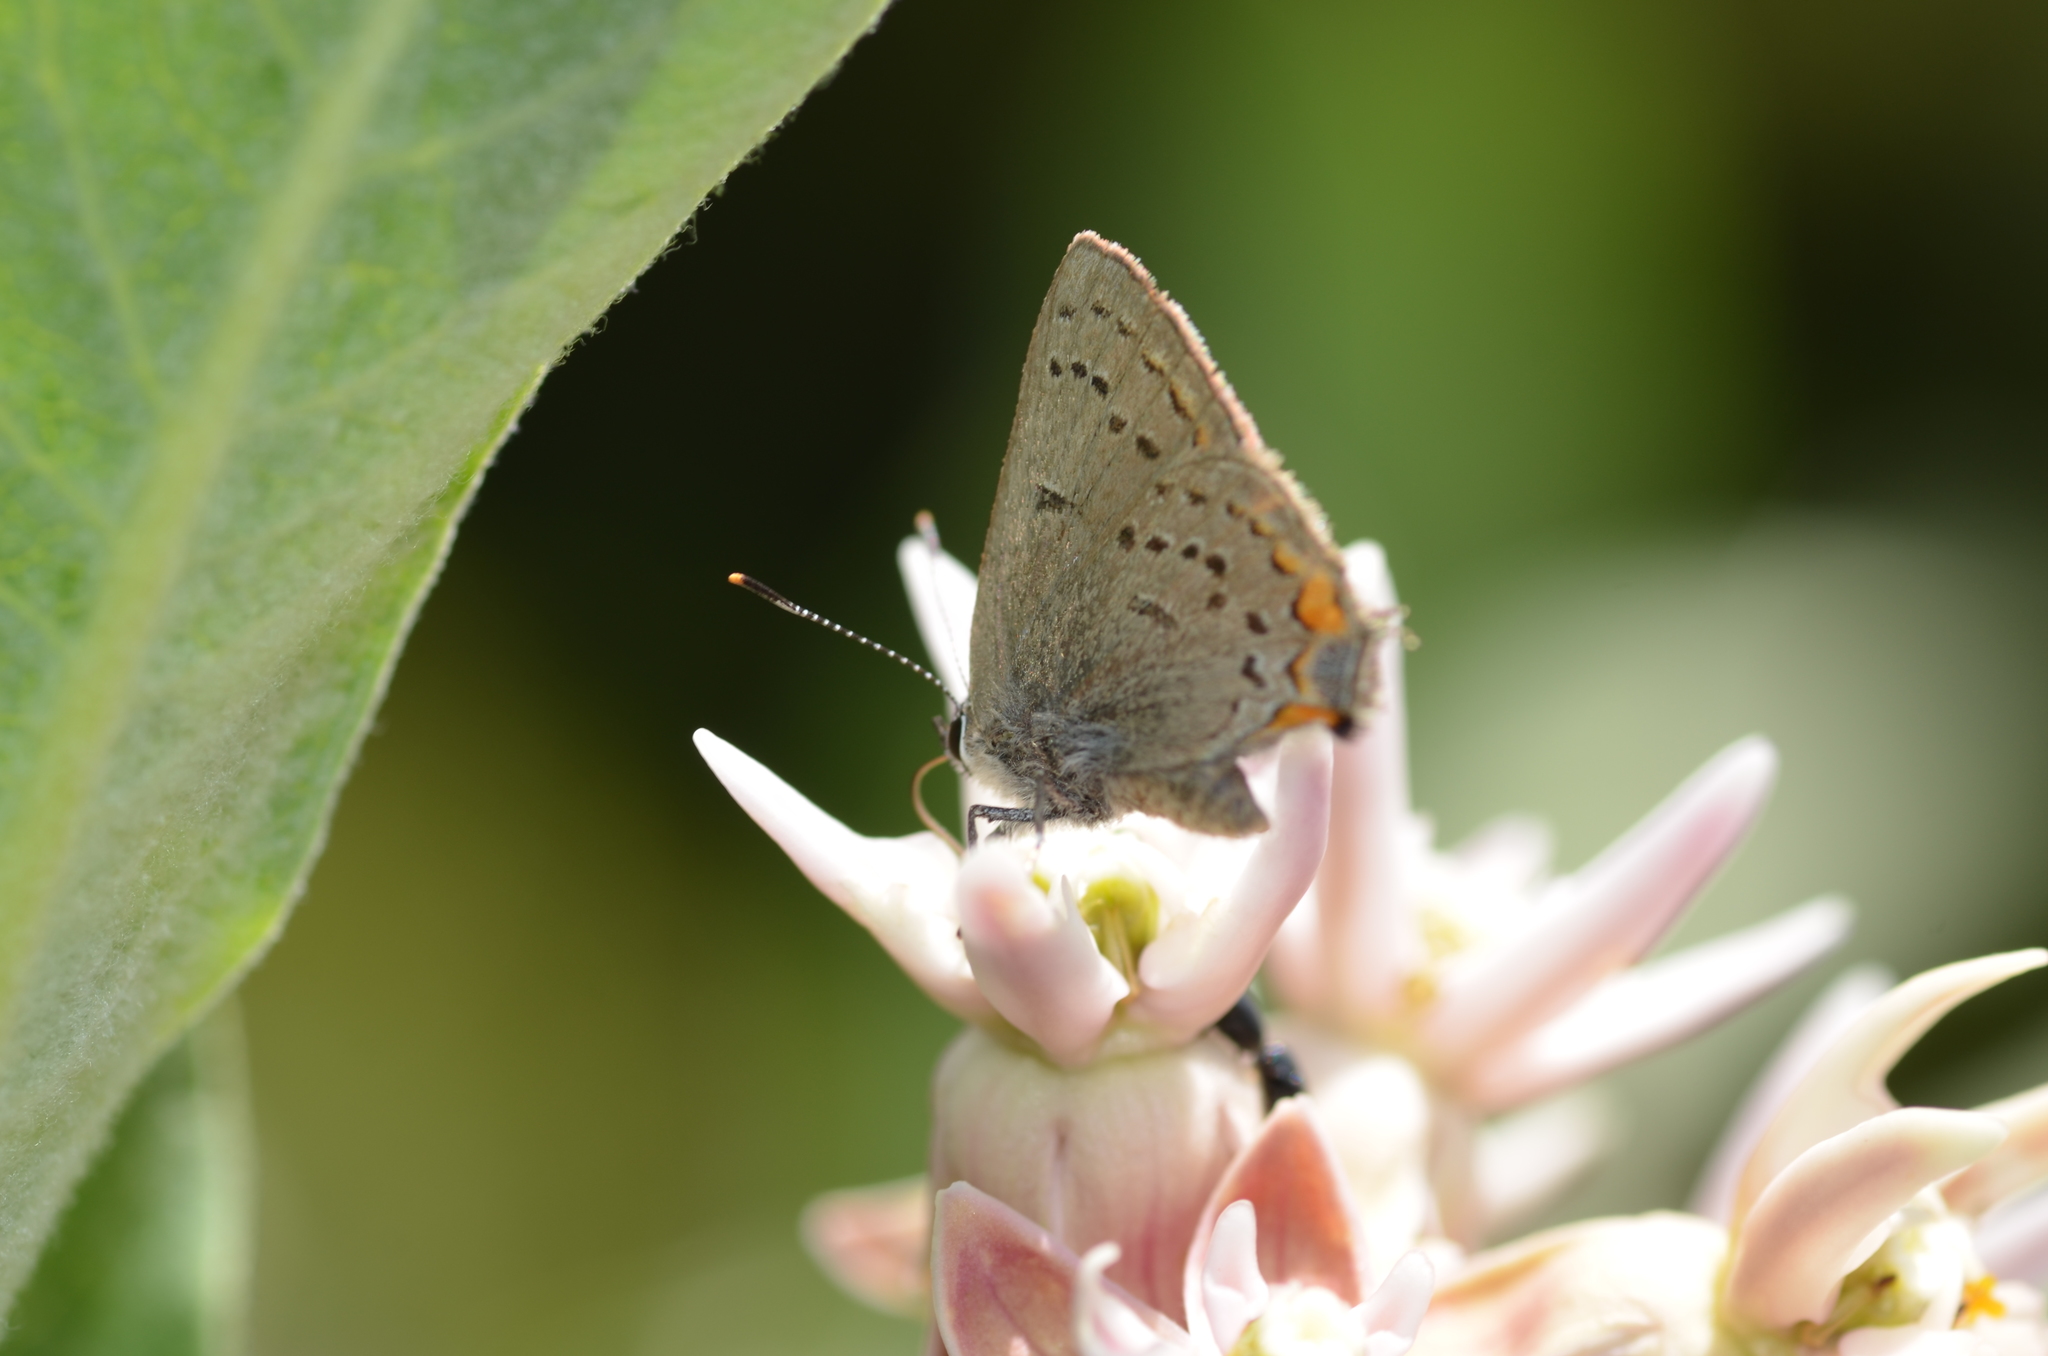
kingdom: Animalia
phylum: Arthropoda
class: Insecta
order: Lepidoptera
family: Lycaenidae
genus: Strymon
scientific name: Strymon acadica
